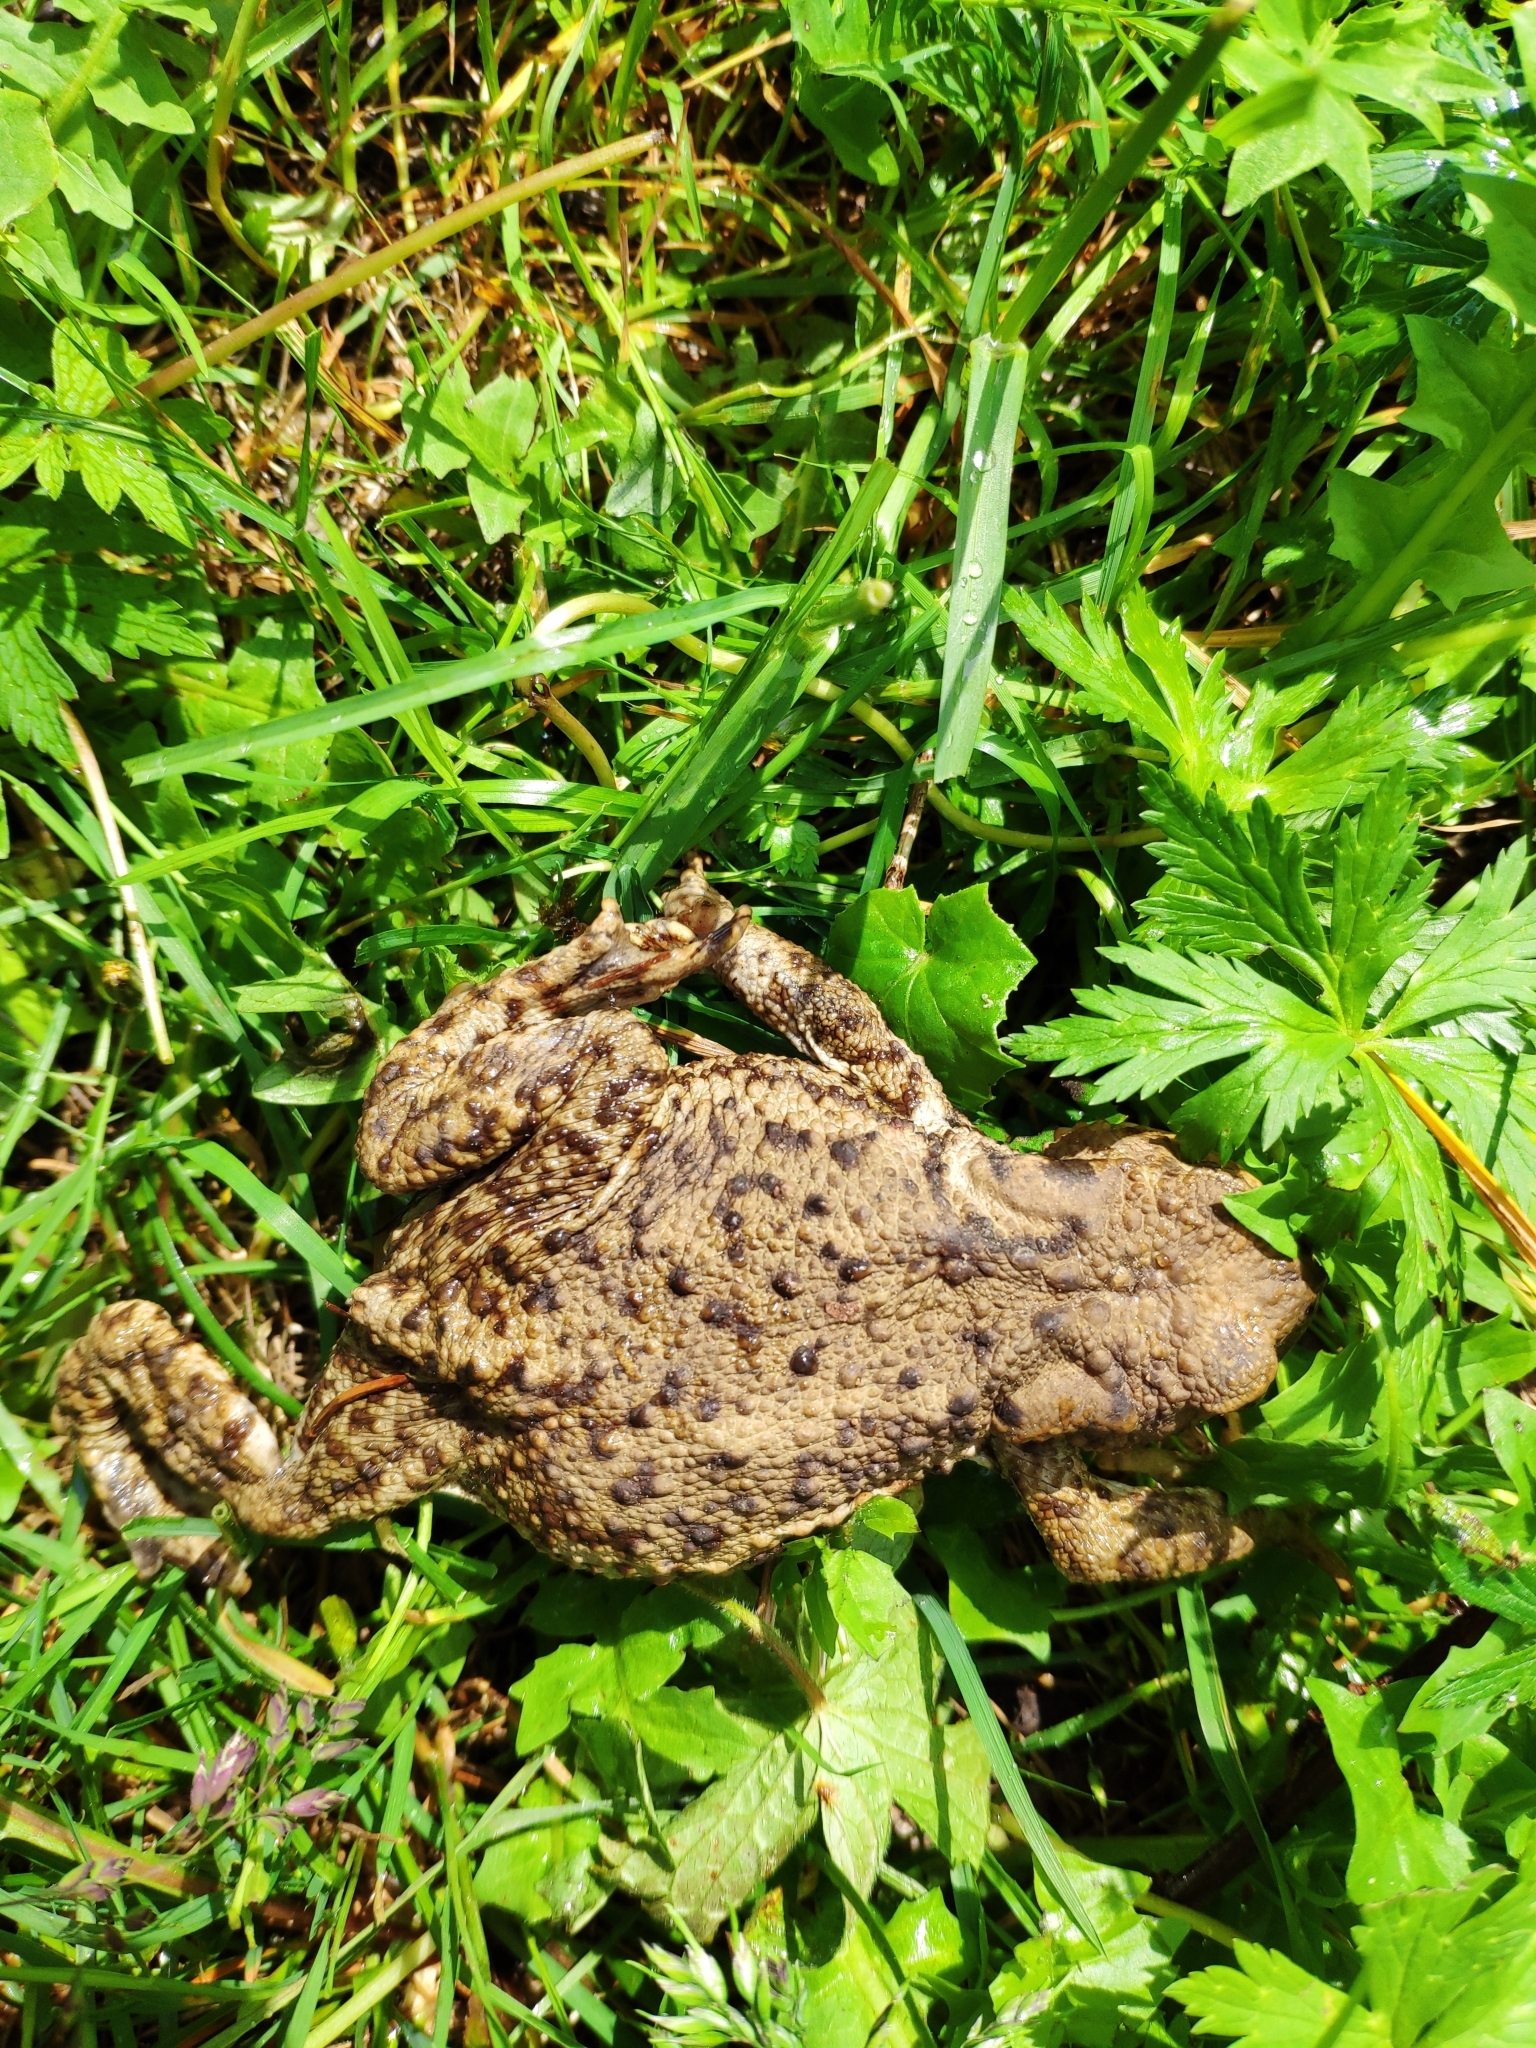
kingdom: Animalia
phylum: Chordata
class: Amphibia
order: Anura
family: Bufonidae
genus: Bufo
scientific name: Bufo bufo
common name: Common toad
